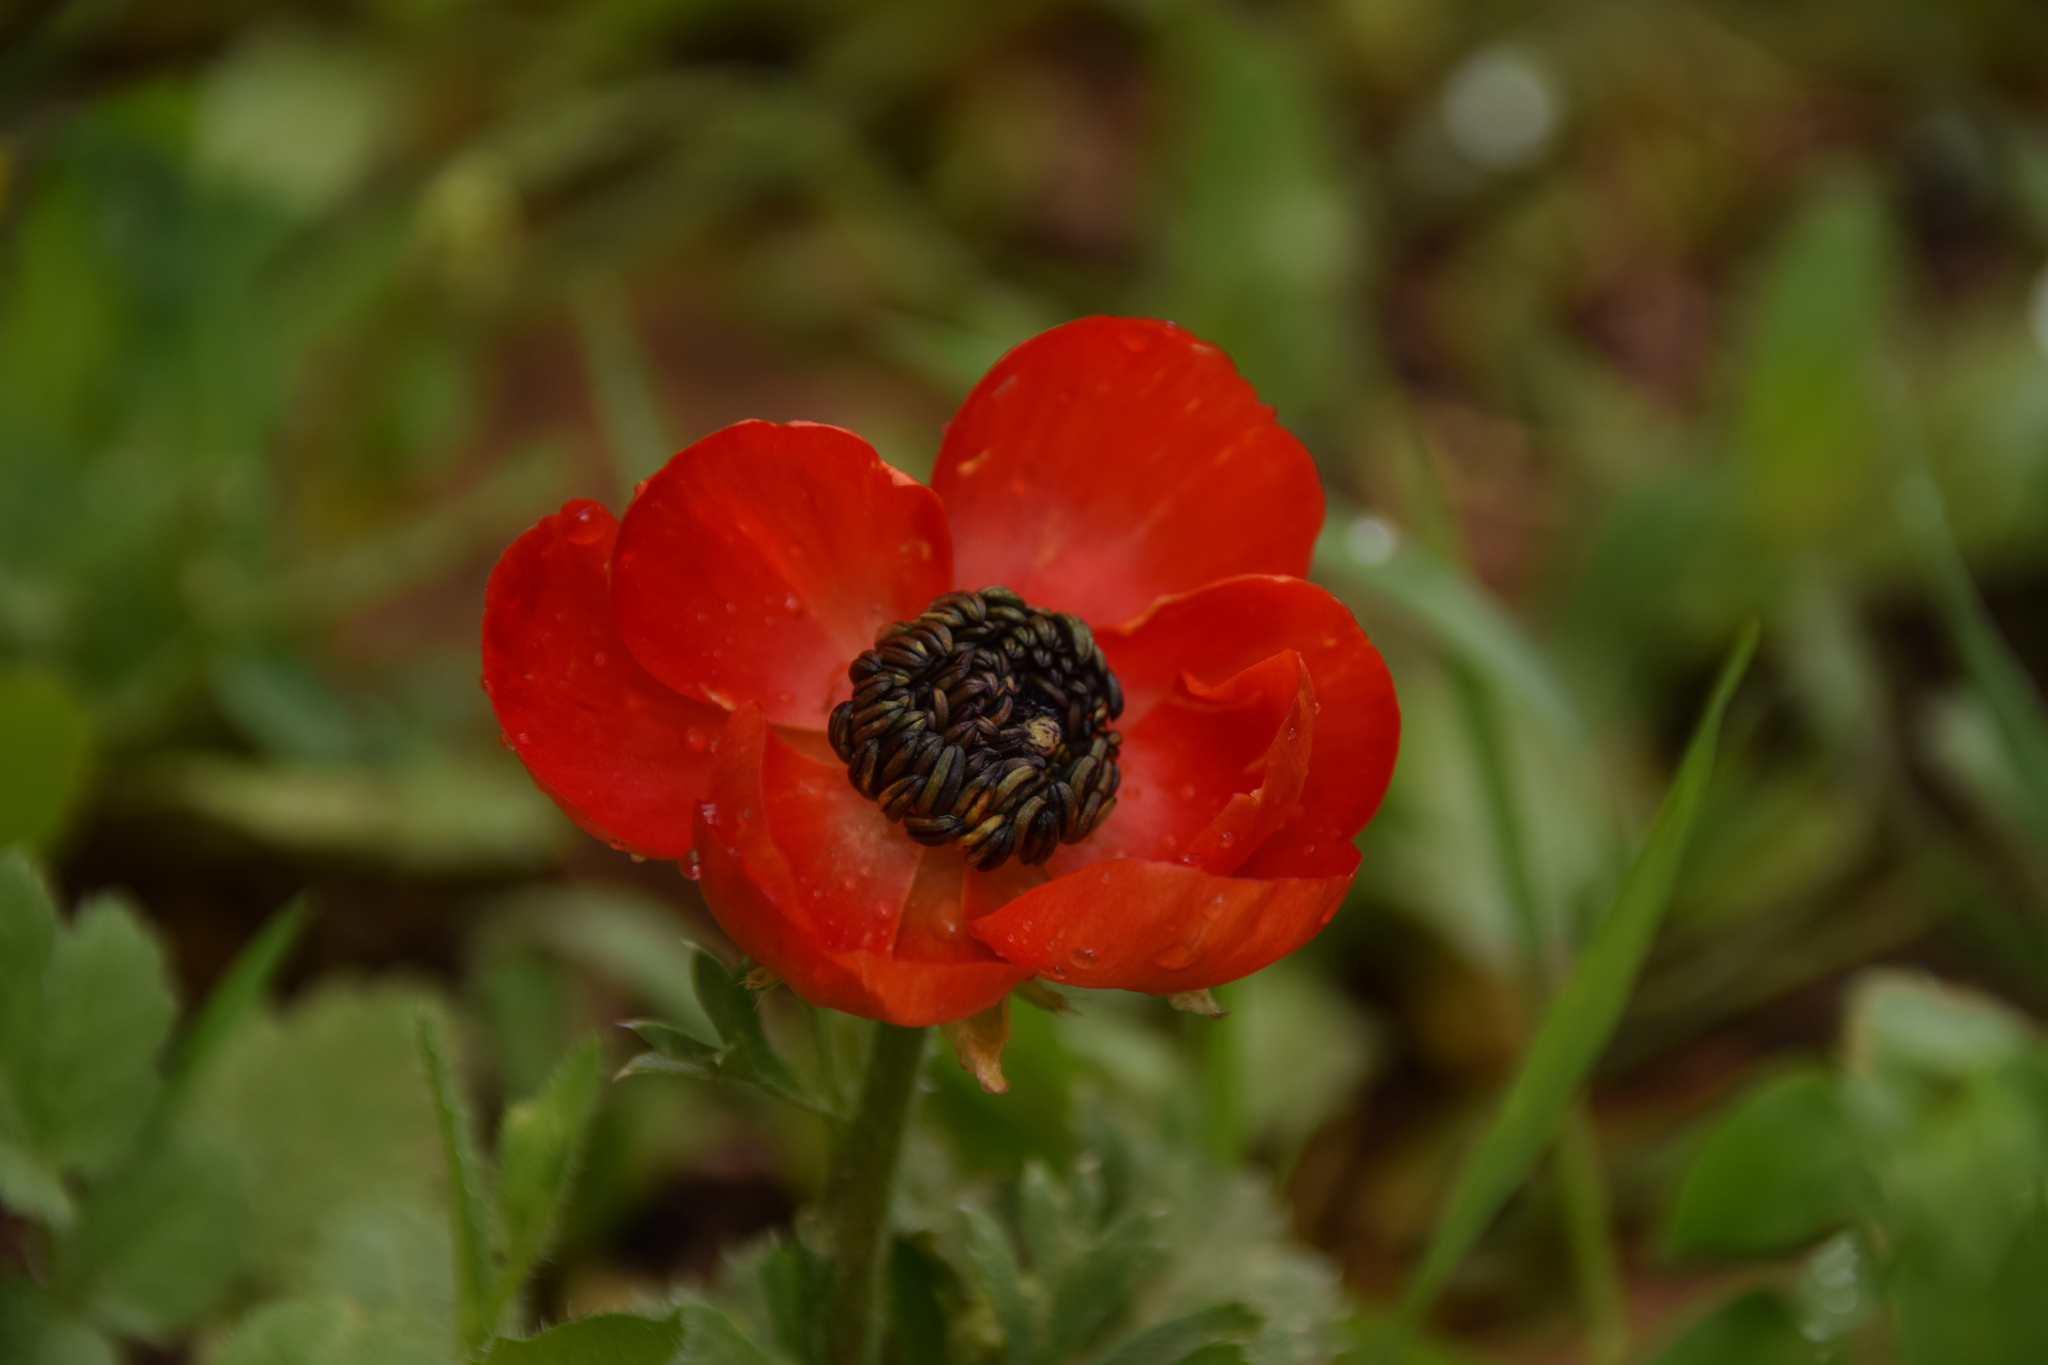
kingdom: Plantae
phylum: Tracheophyta
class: Magnoliopsida
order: Ranunculales
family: Ranunculaceae
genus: Ranunculus
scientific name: Ranunculus asiaticus
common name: Persian buttercup
